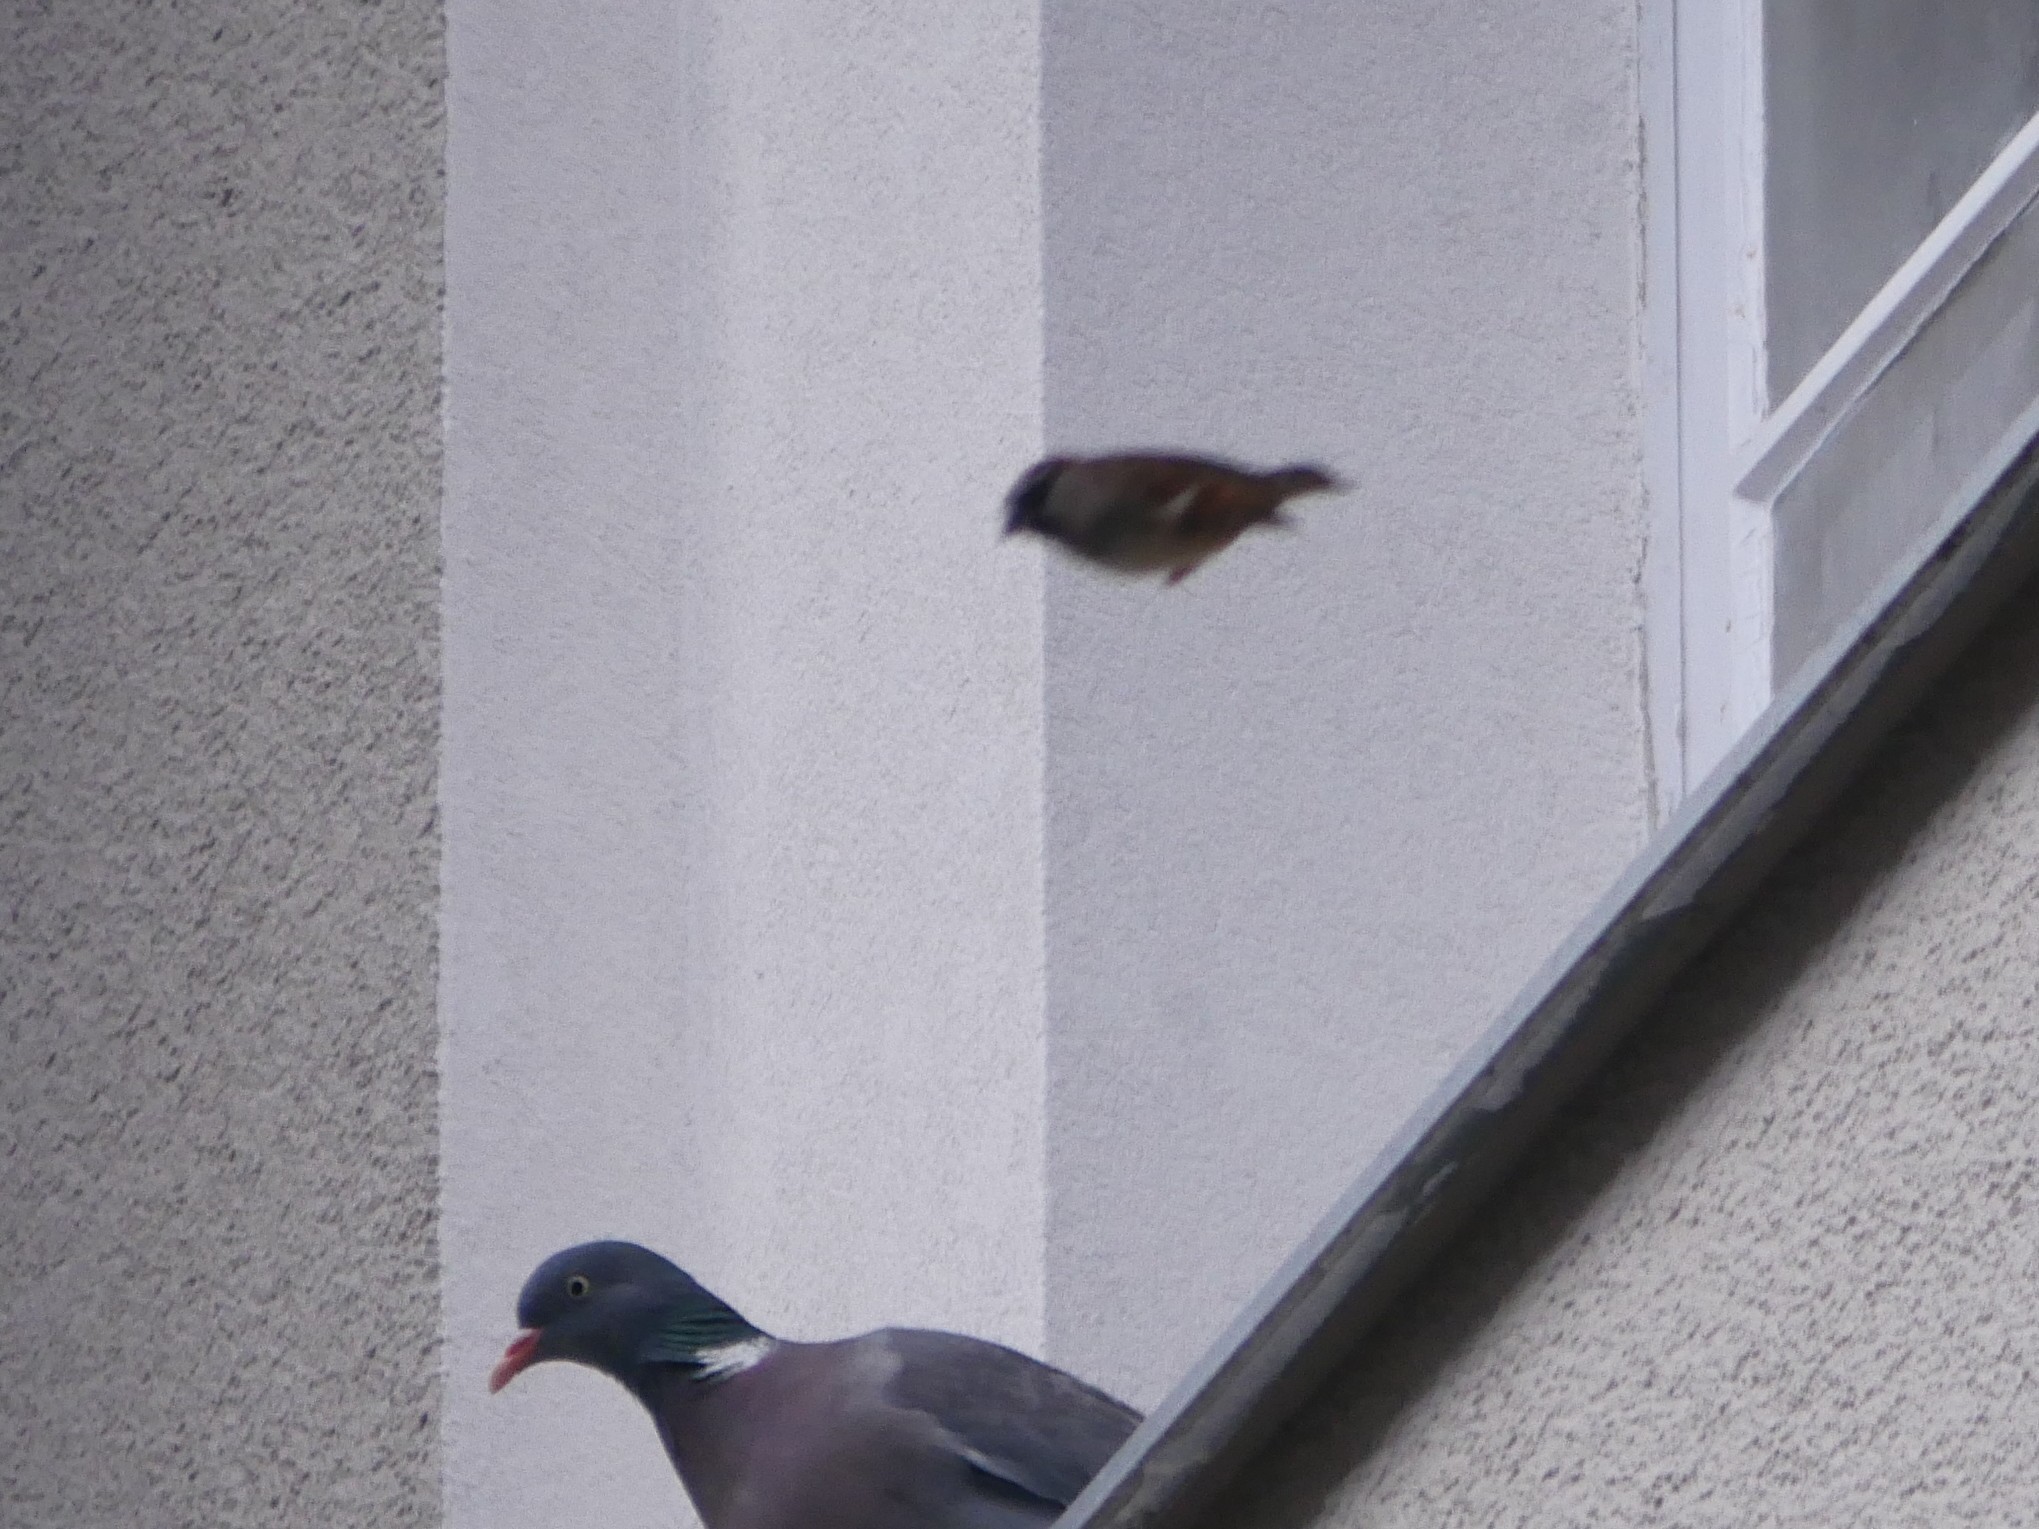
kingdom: Animalia
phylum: Chordata
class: Aves
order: Passeriformes
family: Passeridae
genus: Passer
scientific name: Passer domesticus
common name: House sparrow
